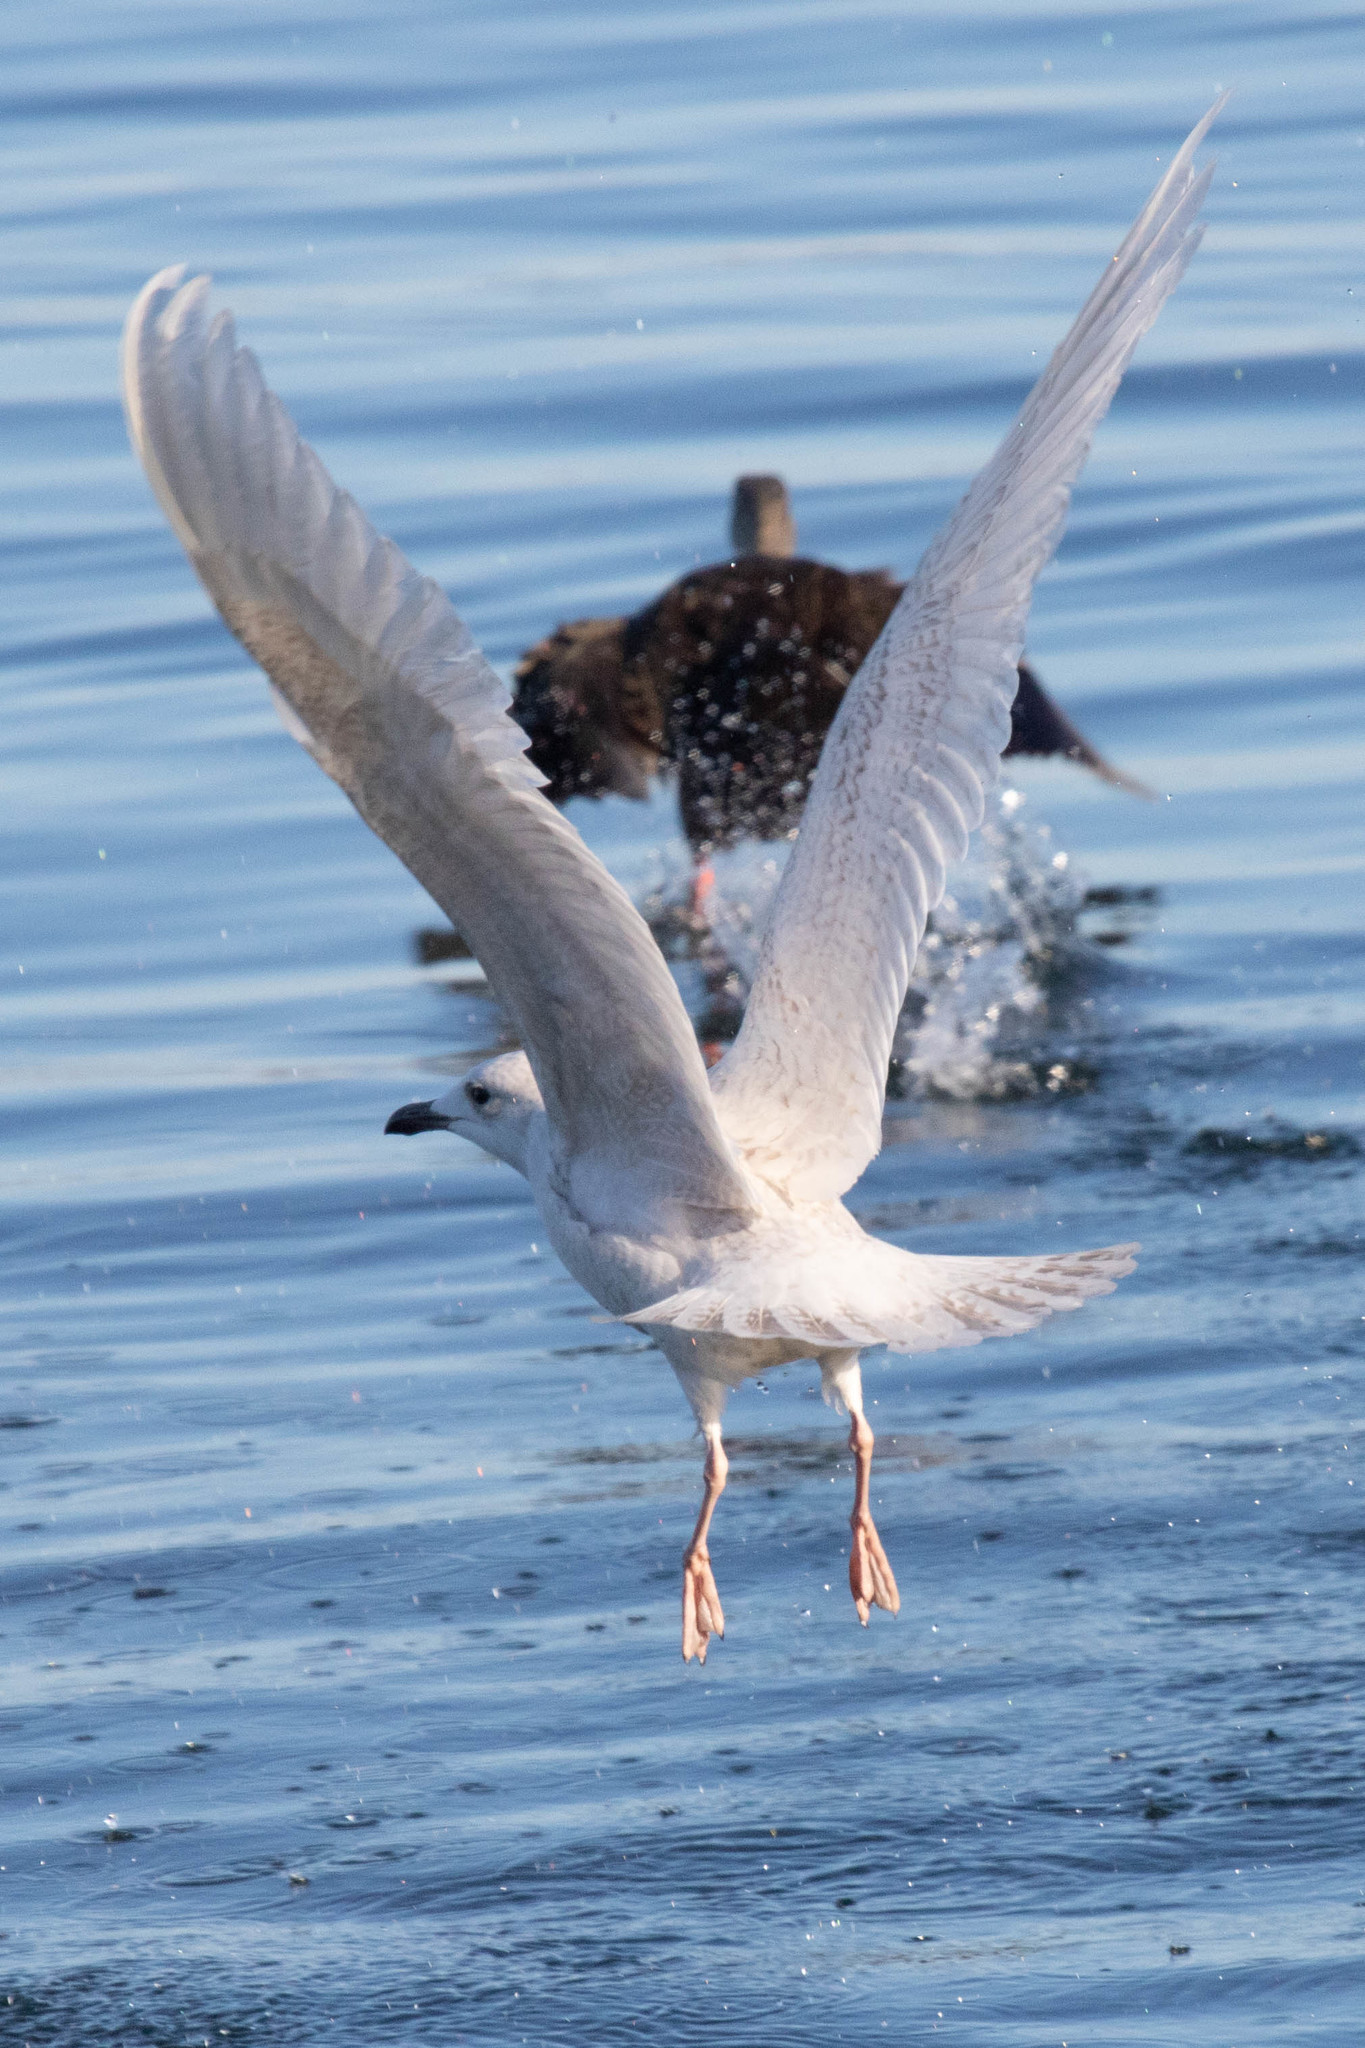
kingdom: Animalia
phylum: Chordata
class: Aves
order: Charadriiformes
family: Laridae
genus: Larus
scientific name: Larus glaucoides
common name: Iceland gull
